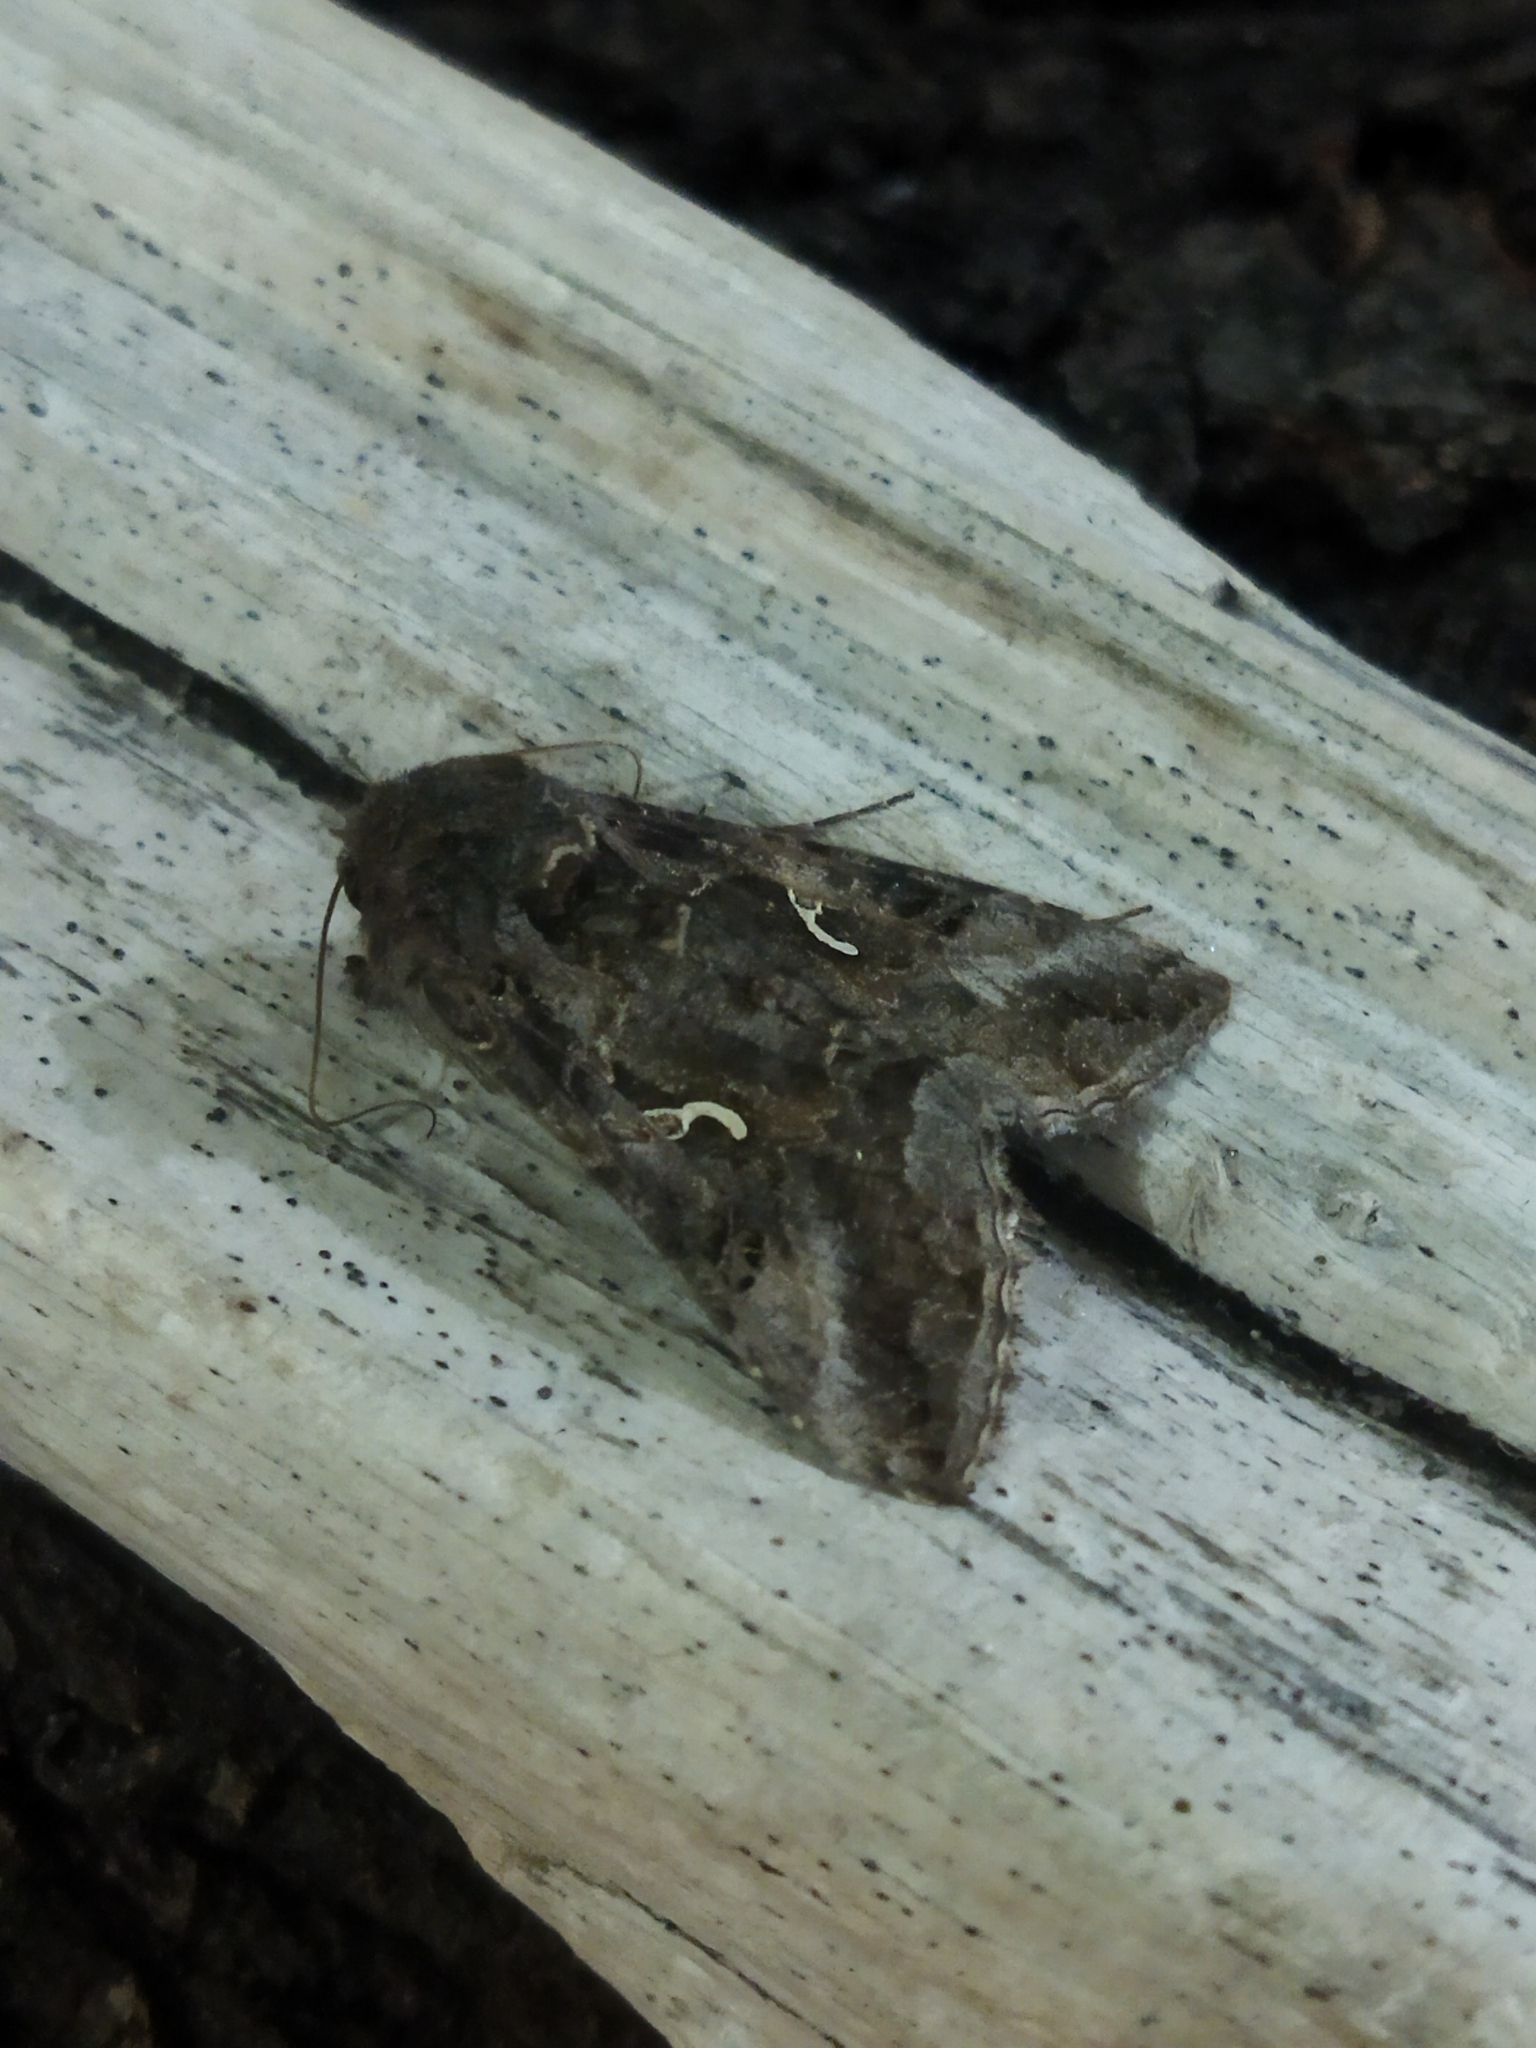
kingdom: Animalia
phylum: Arthropoda
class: Insecta
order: Lepidoptera
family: Noctuidae
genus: Autographa
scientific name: Autographa gamma
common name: Silver y
